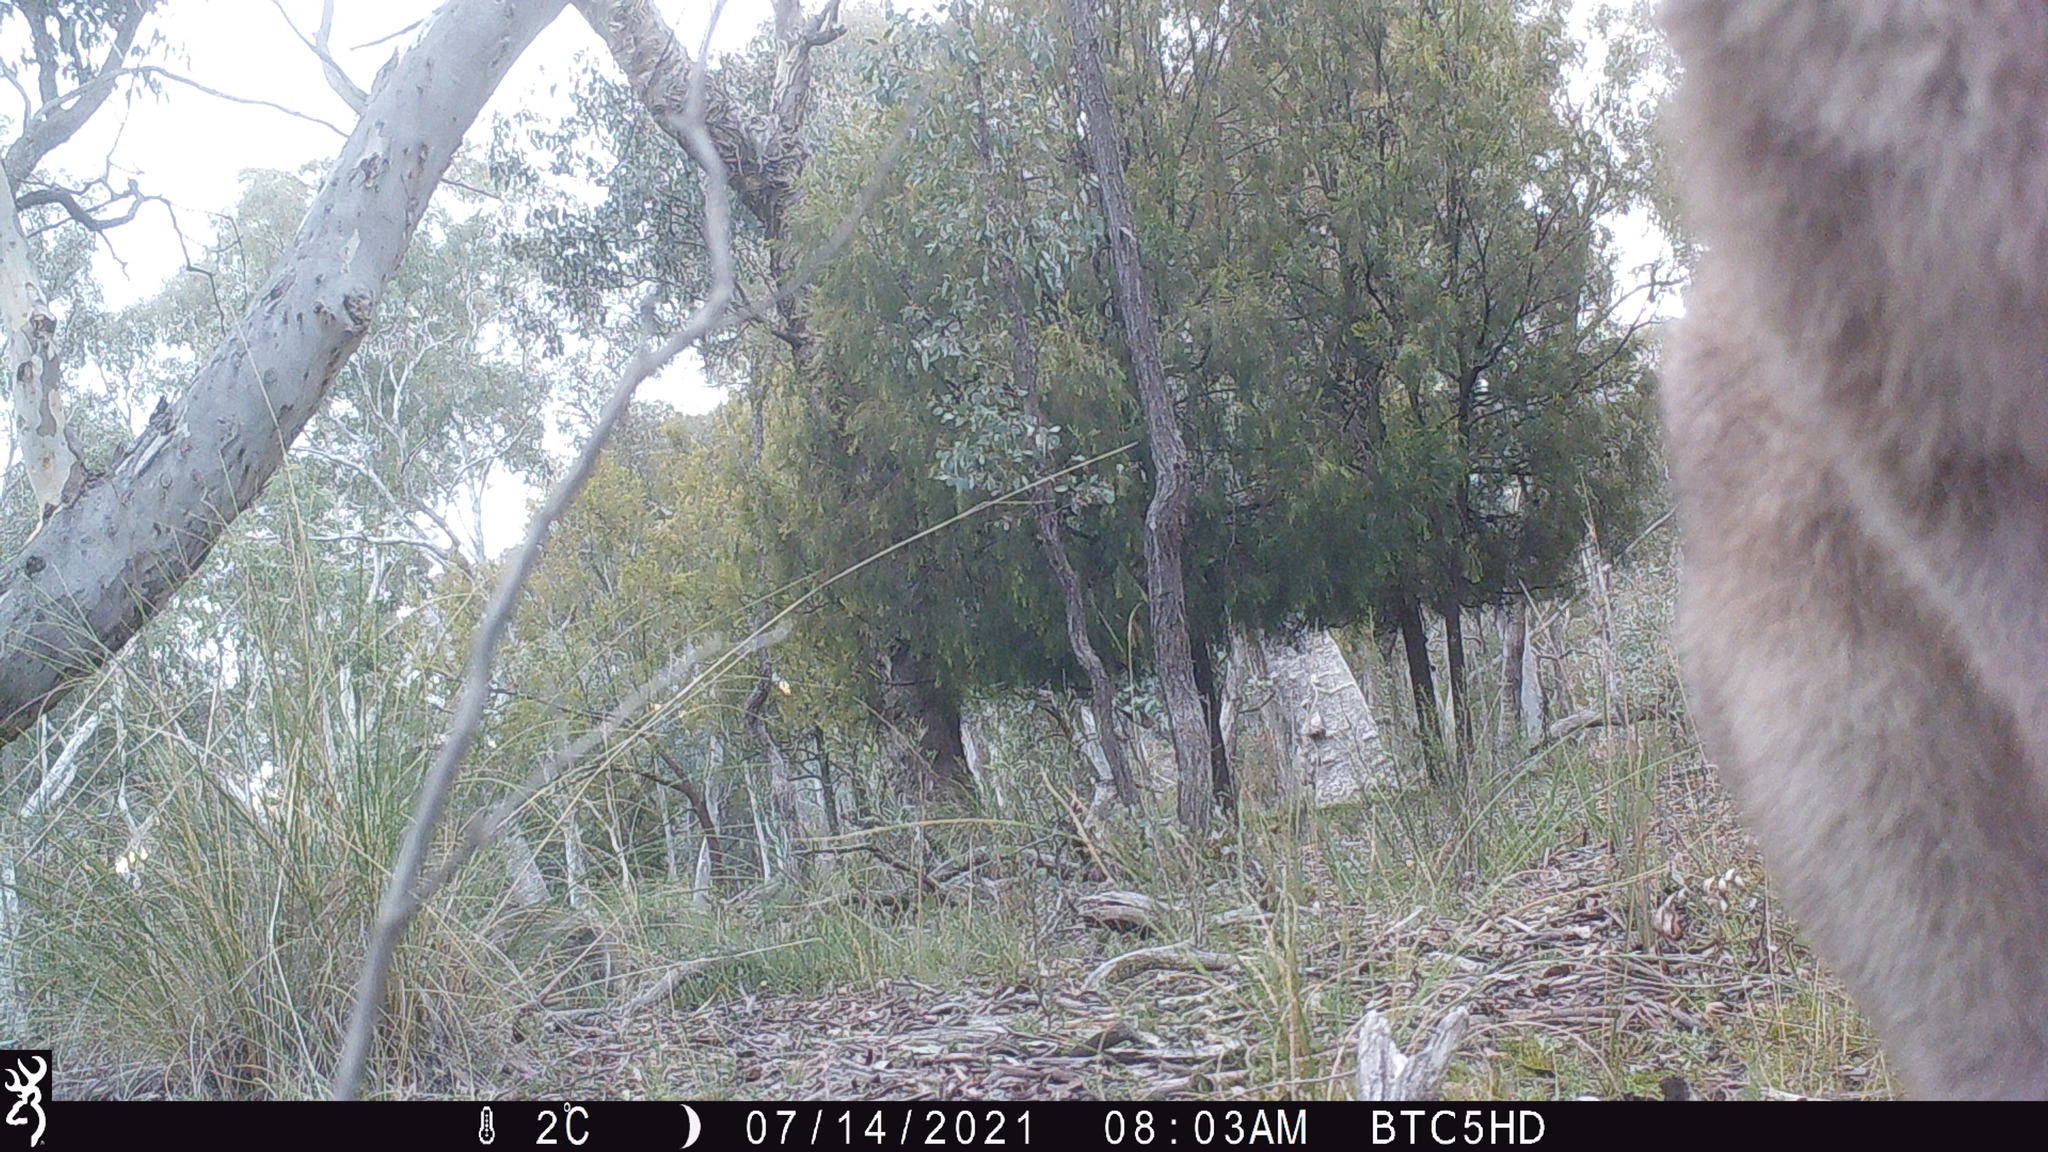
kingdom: Animalia
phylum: Chordata
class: Mammalia
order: Diprotodontia
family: Macropodidae
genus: Macropus
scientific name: Macropus giganteus
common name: Eastern grey kangaroo
